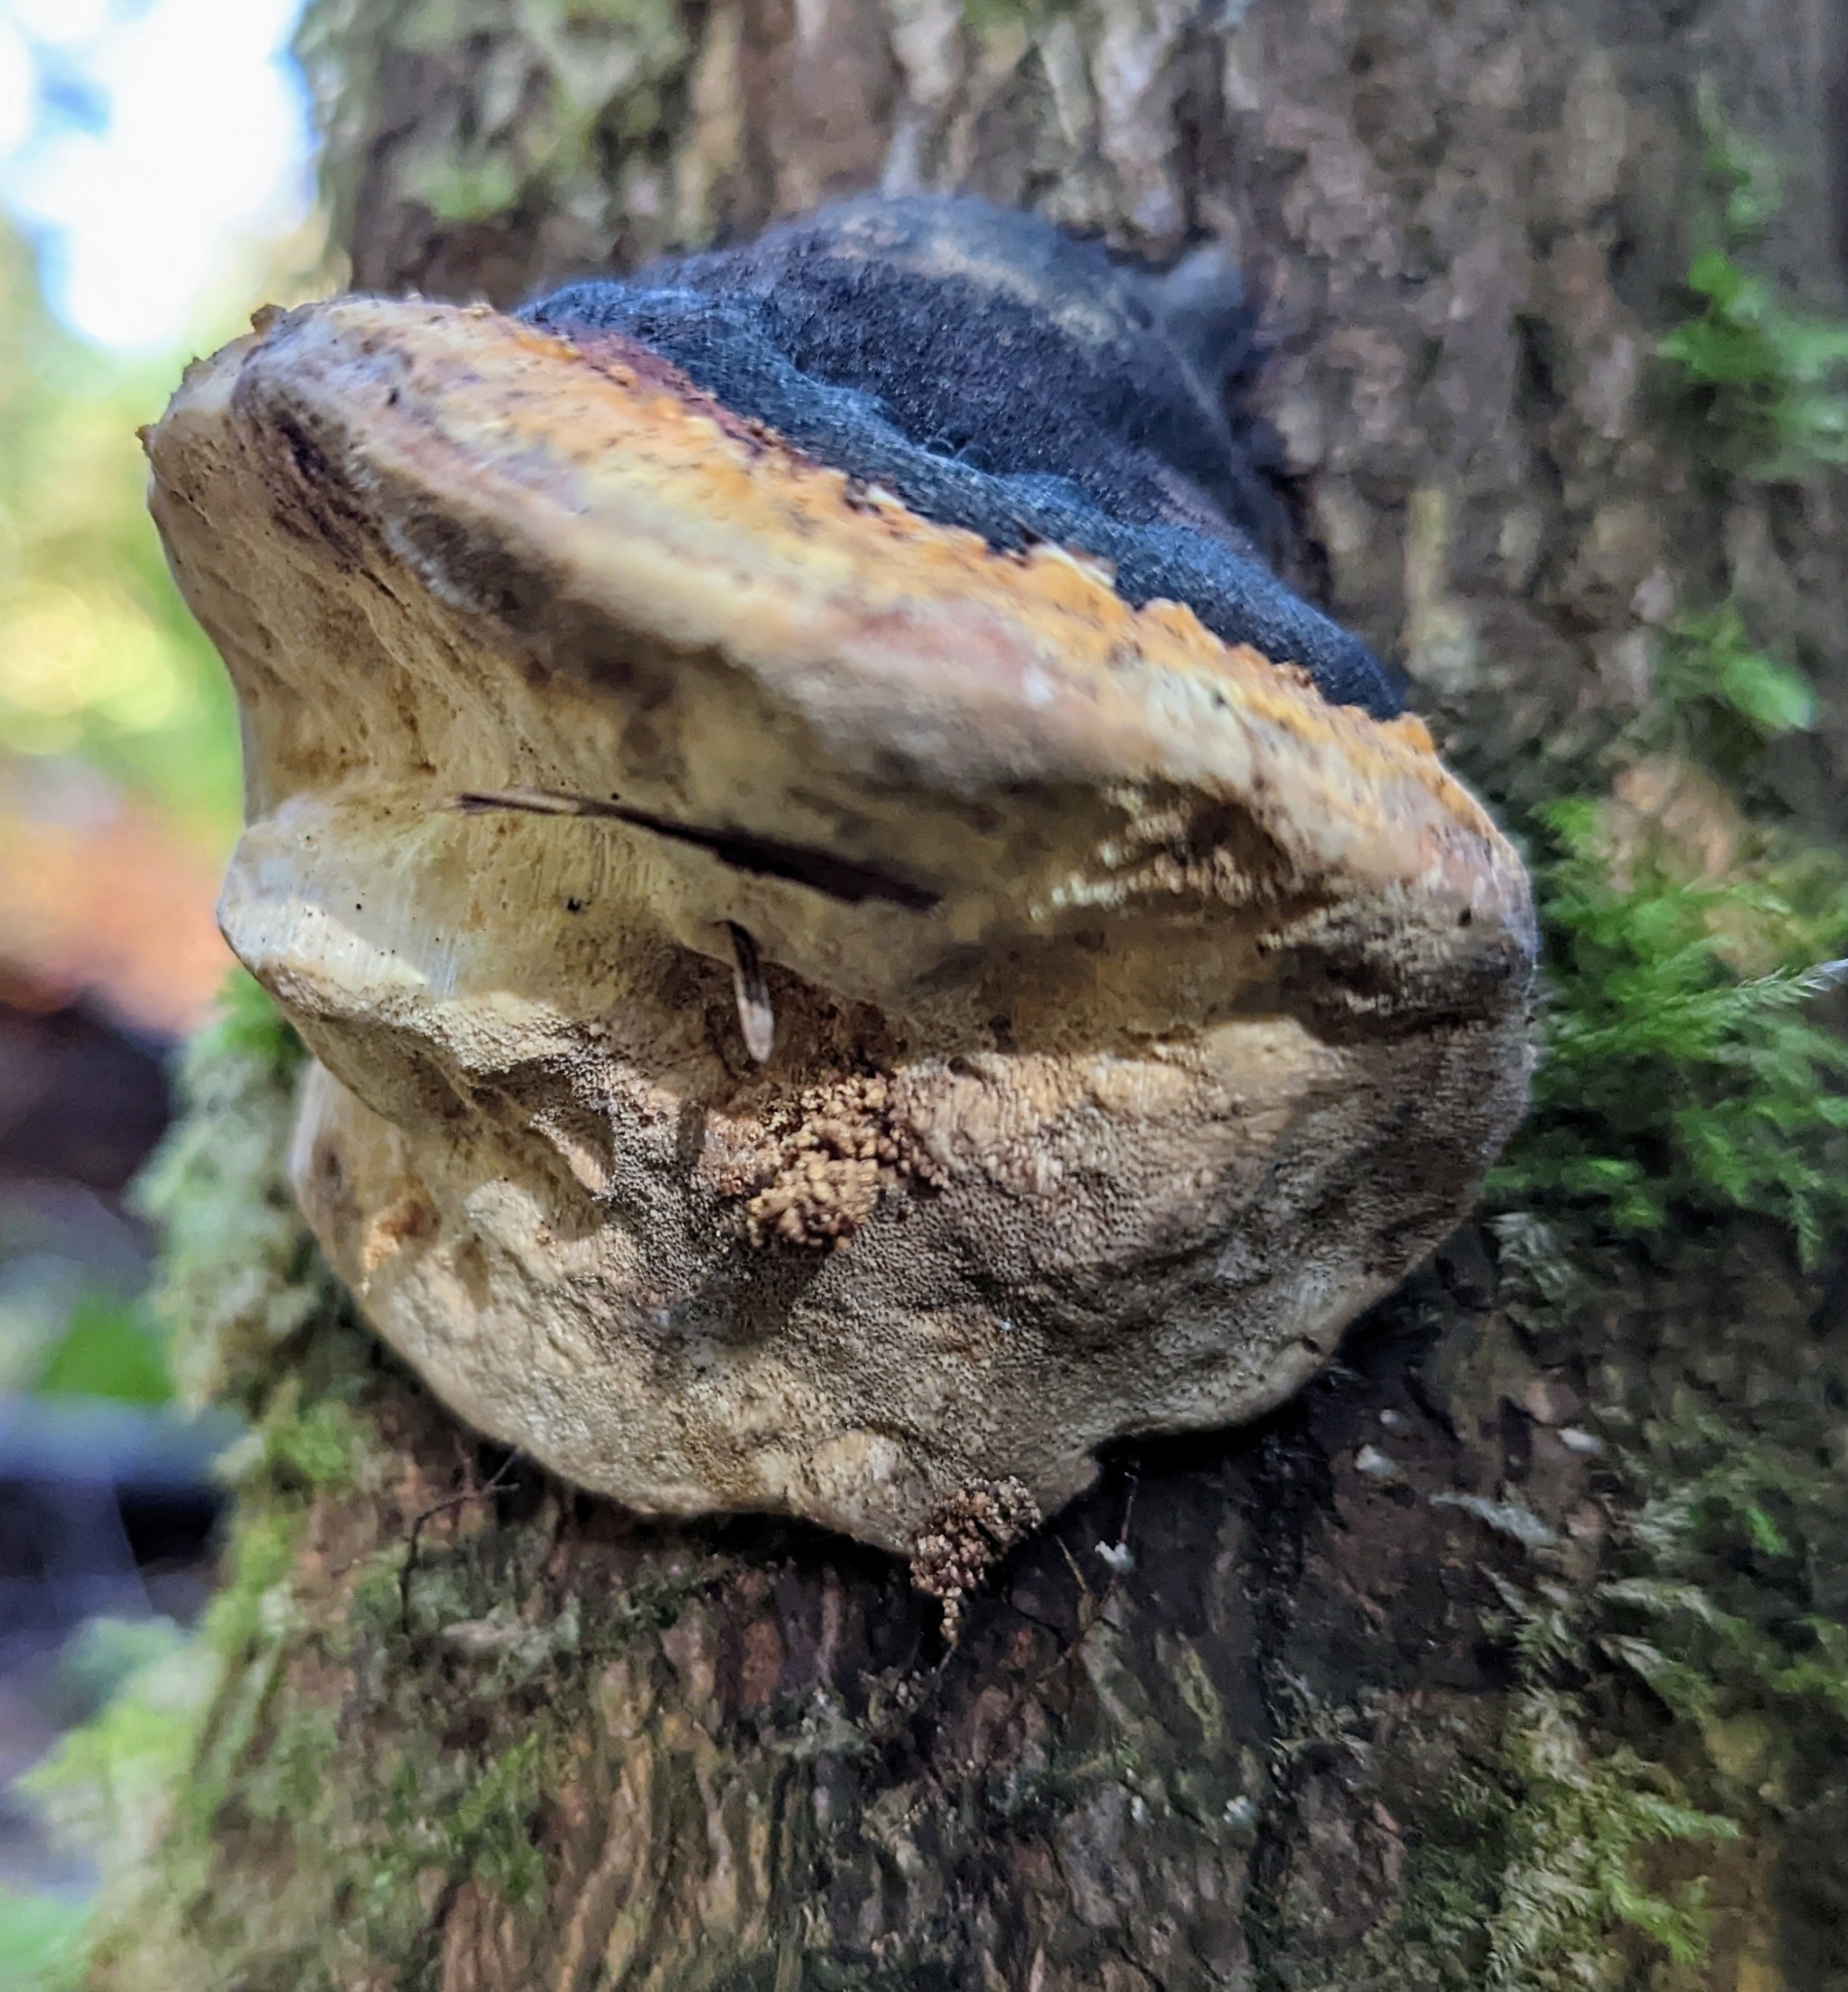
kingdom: Fungi
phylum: Basidiomycota
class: Agaricomycetes
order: Polyporales
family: Fomitopsidaceae
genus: Fomitopsis
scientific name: Fomitopsis mounceae
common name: Northern red belt
